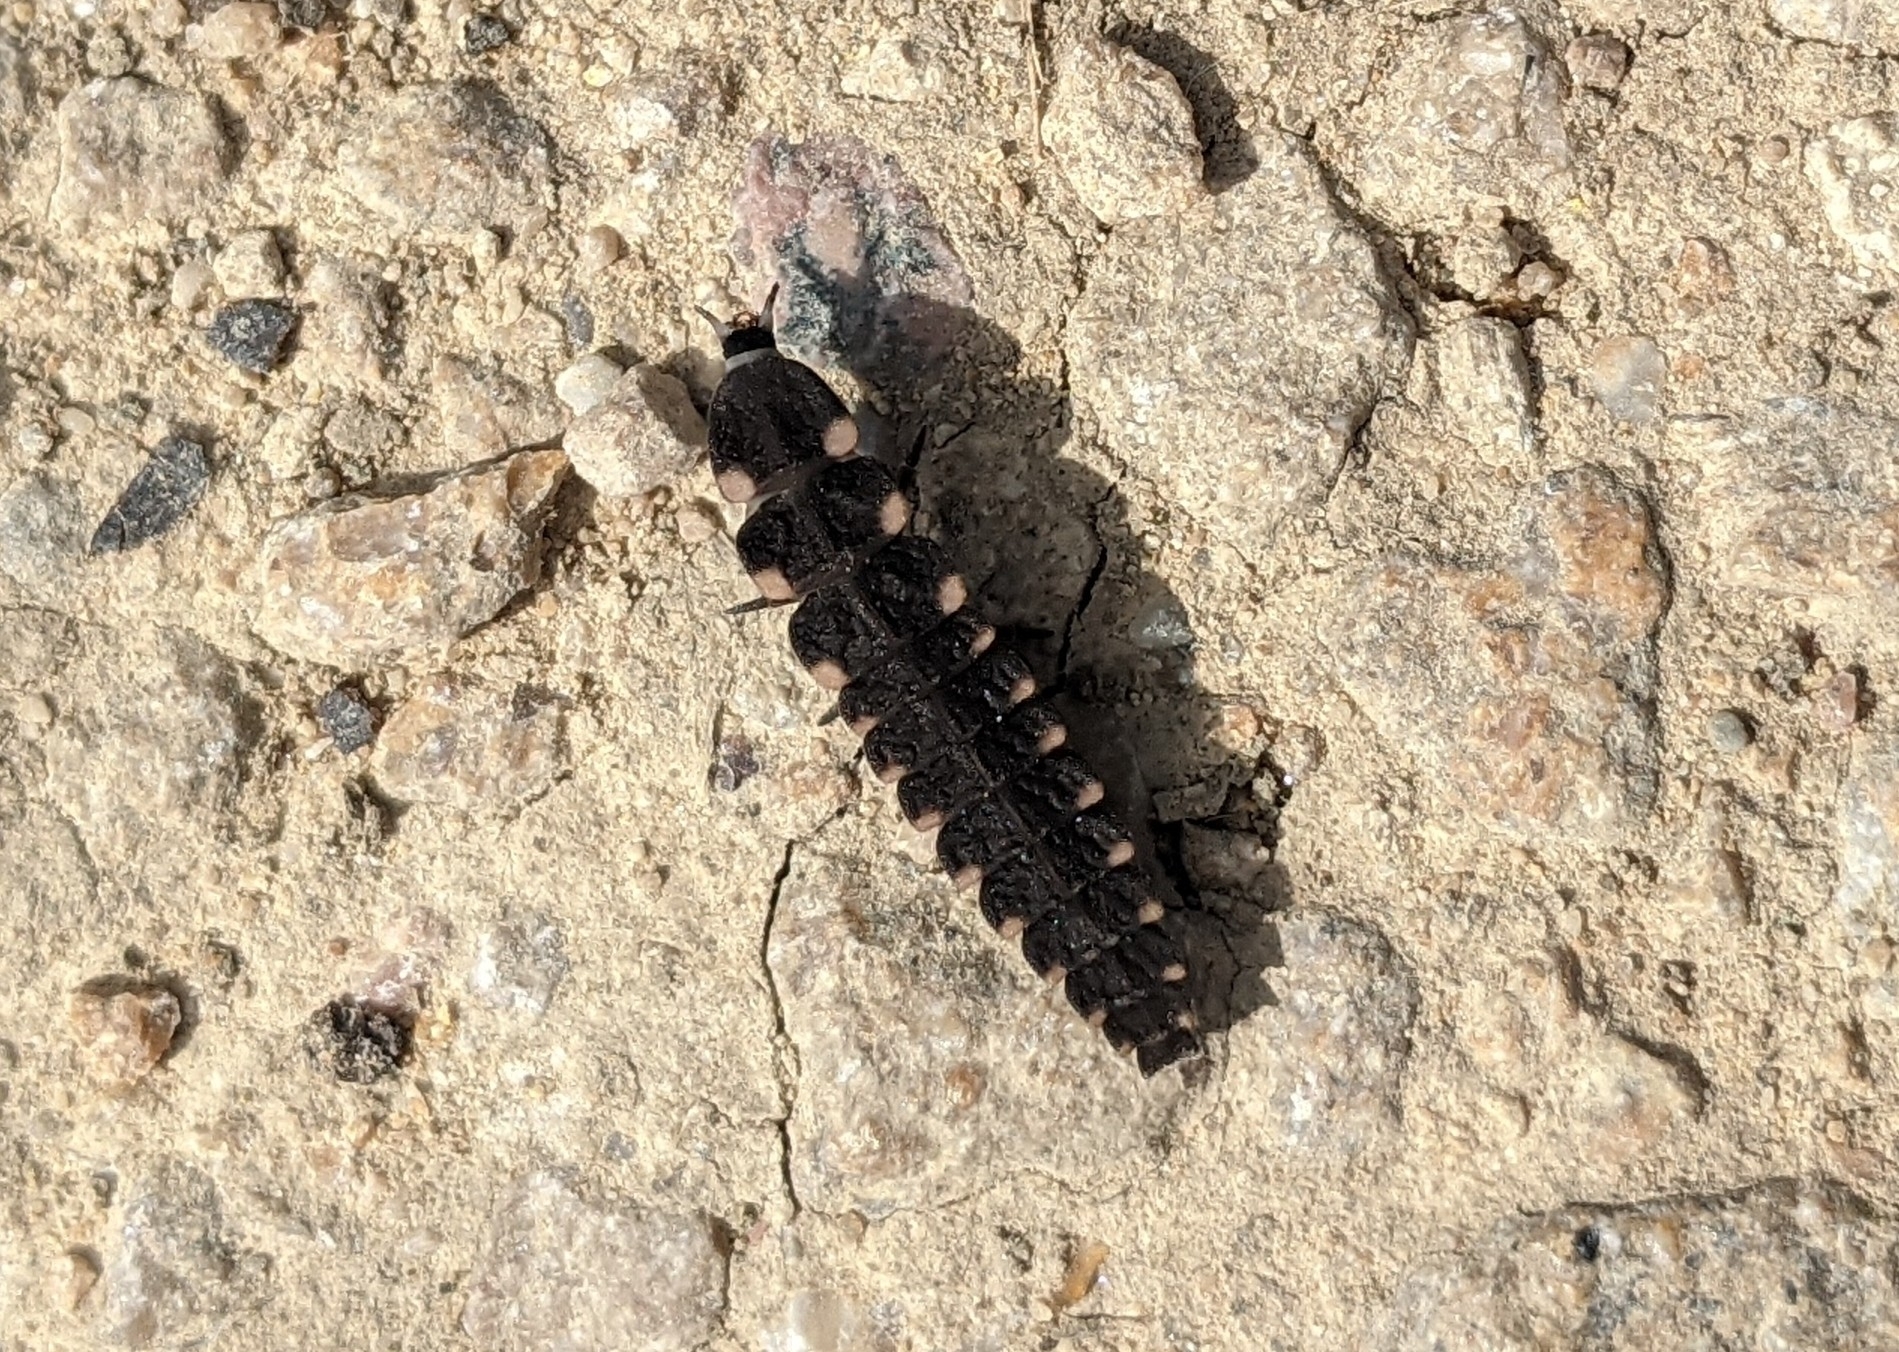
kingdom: Animalia
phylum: Arthropoda
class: Insecta
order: Coleoptera
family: Lampyridae
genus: Lampyris
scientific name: Lampyris noctiluca
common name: Glow-worm
